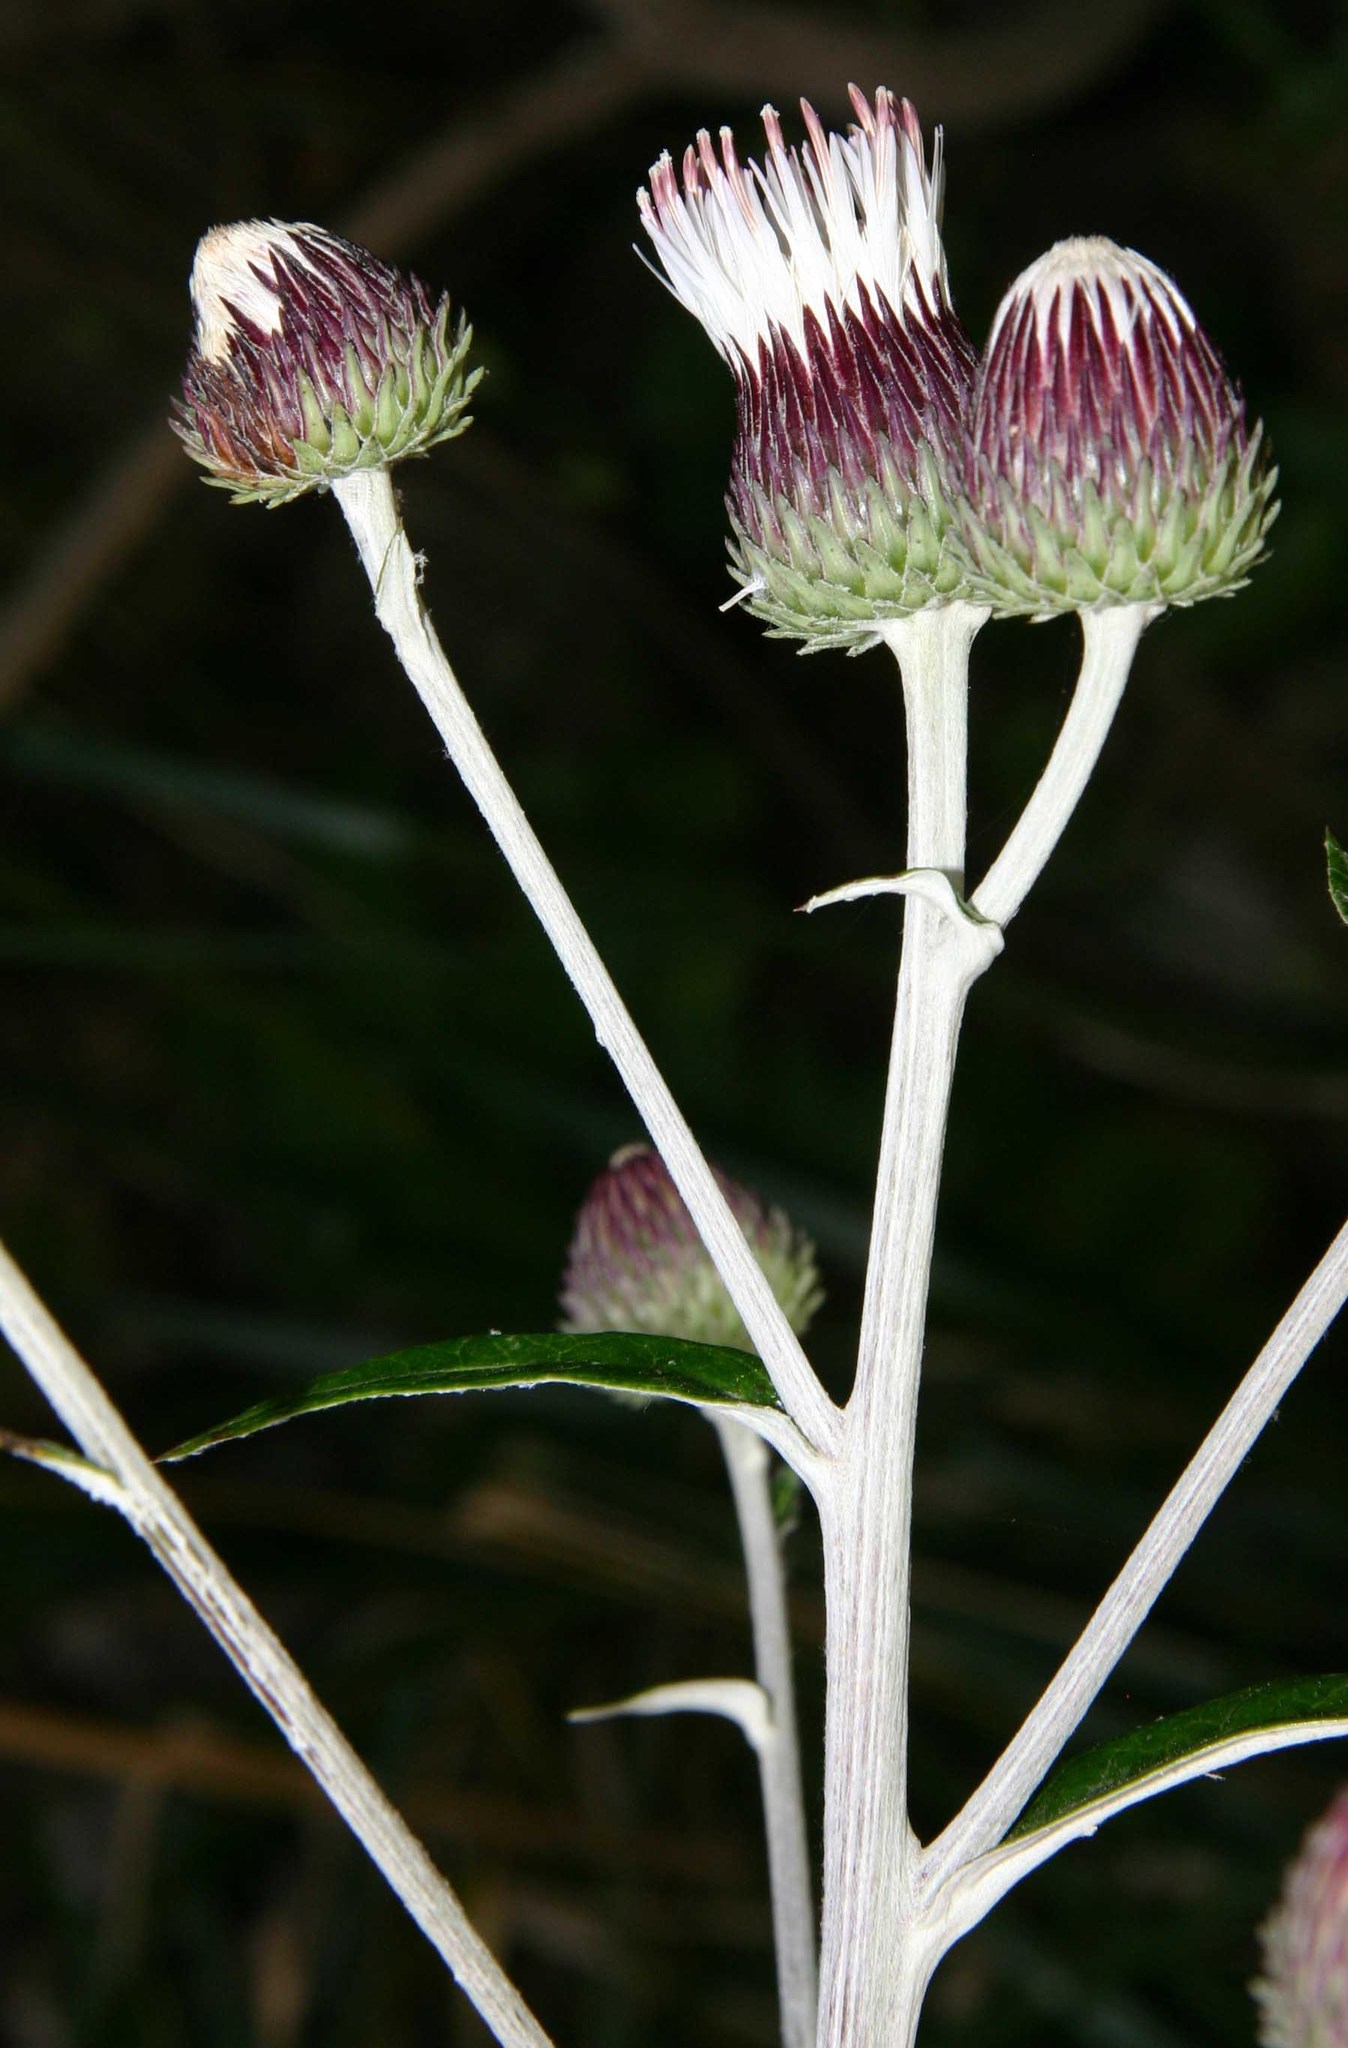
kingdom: Plantae
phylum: Tracheophyta
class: Magnoliopsida
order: Asterales
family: Asteraceae
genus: Ptilostemon
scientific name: Ptilostemon greuteri
